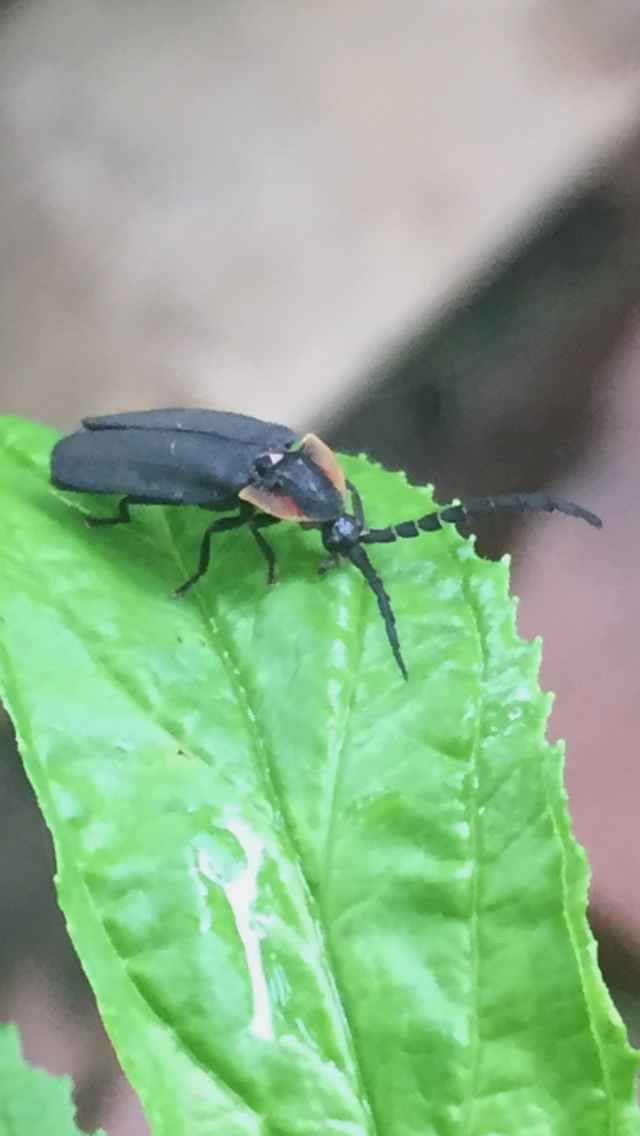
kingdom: Animalia
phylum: Arthropoda
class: Insecta
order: Coleoptera
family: Lampyridae
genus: Lucidota
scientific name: Lucidota atra
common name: Black firefly
